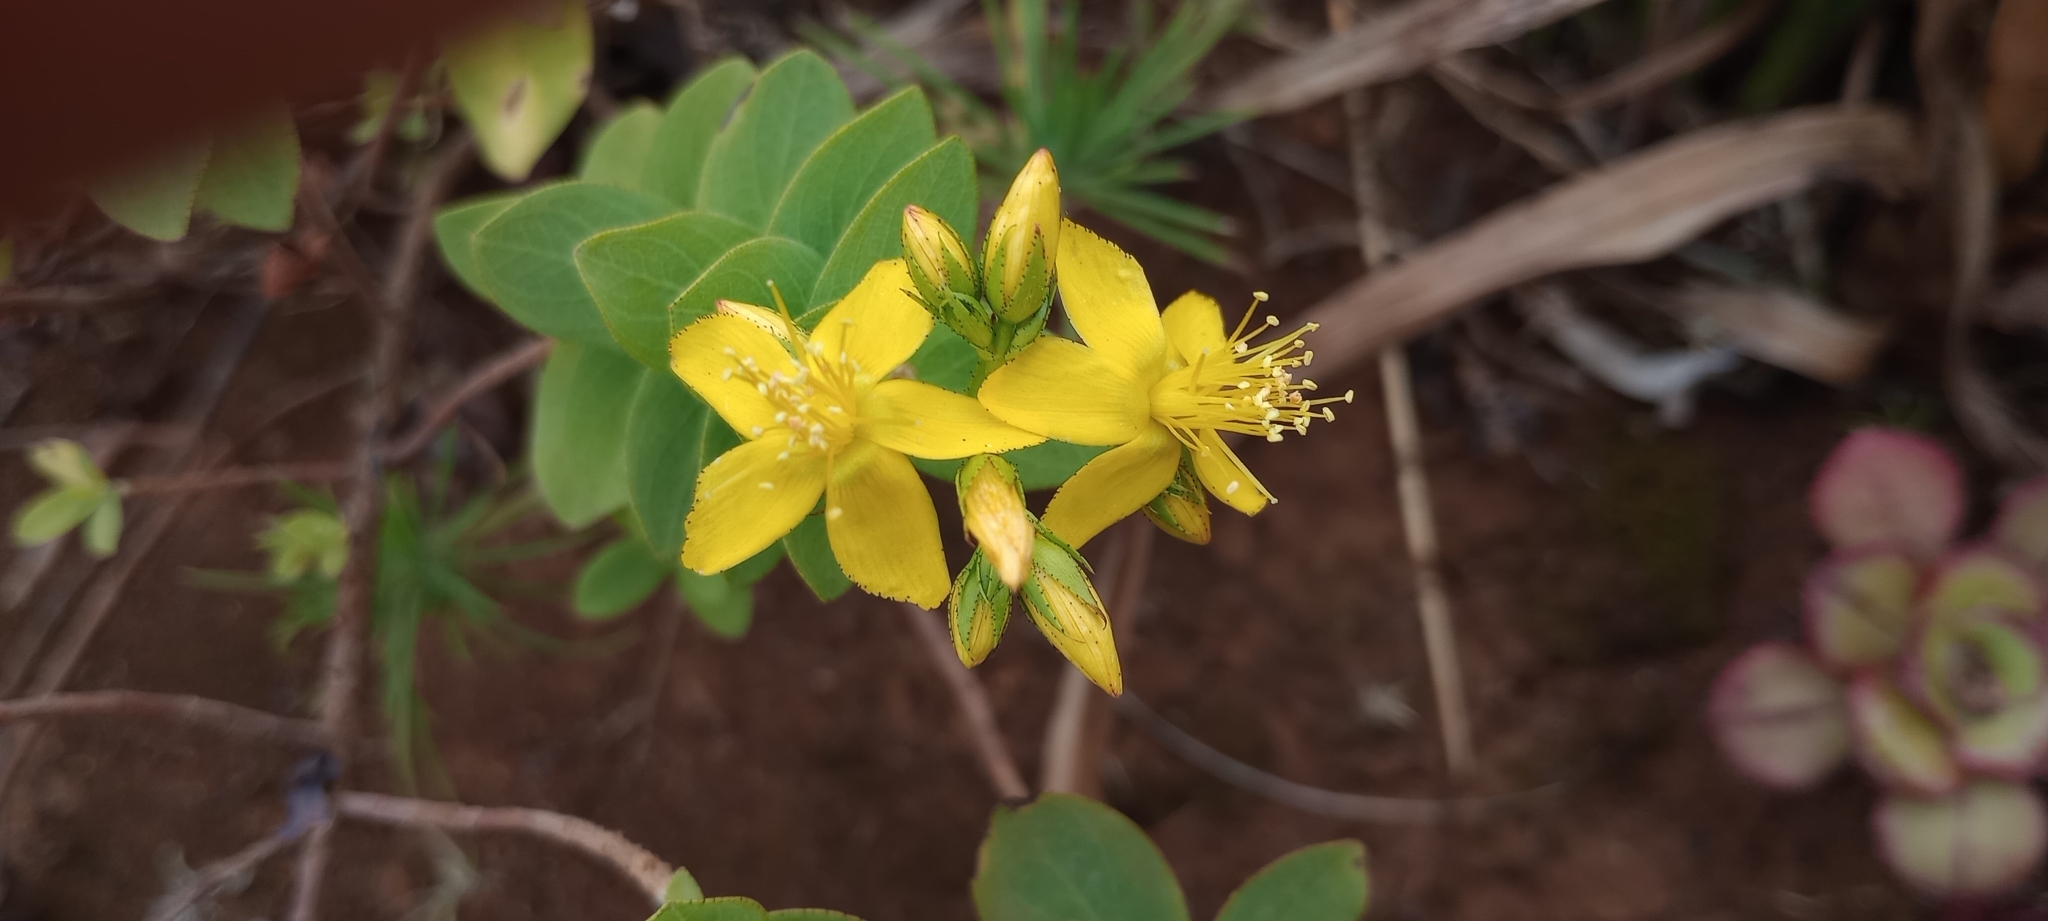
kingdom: Plantae
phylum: Tracheophyta
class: Magnoliopsida
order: Malpighiales
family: Hypericaceae
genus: Hypericum
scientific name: Hypericum reflexum
